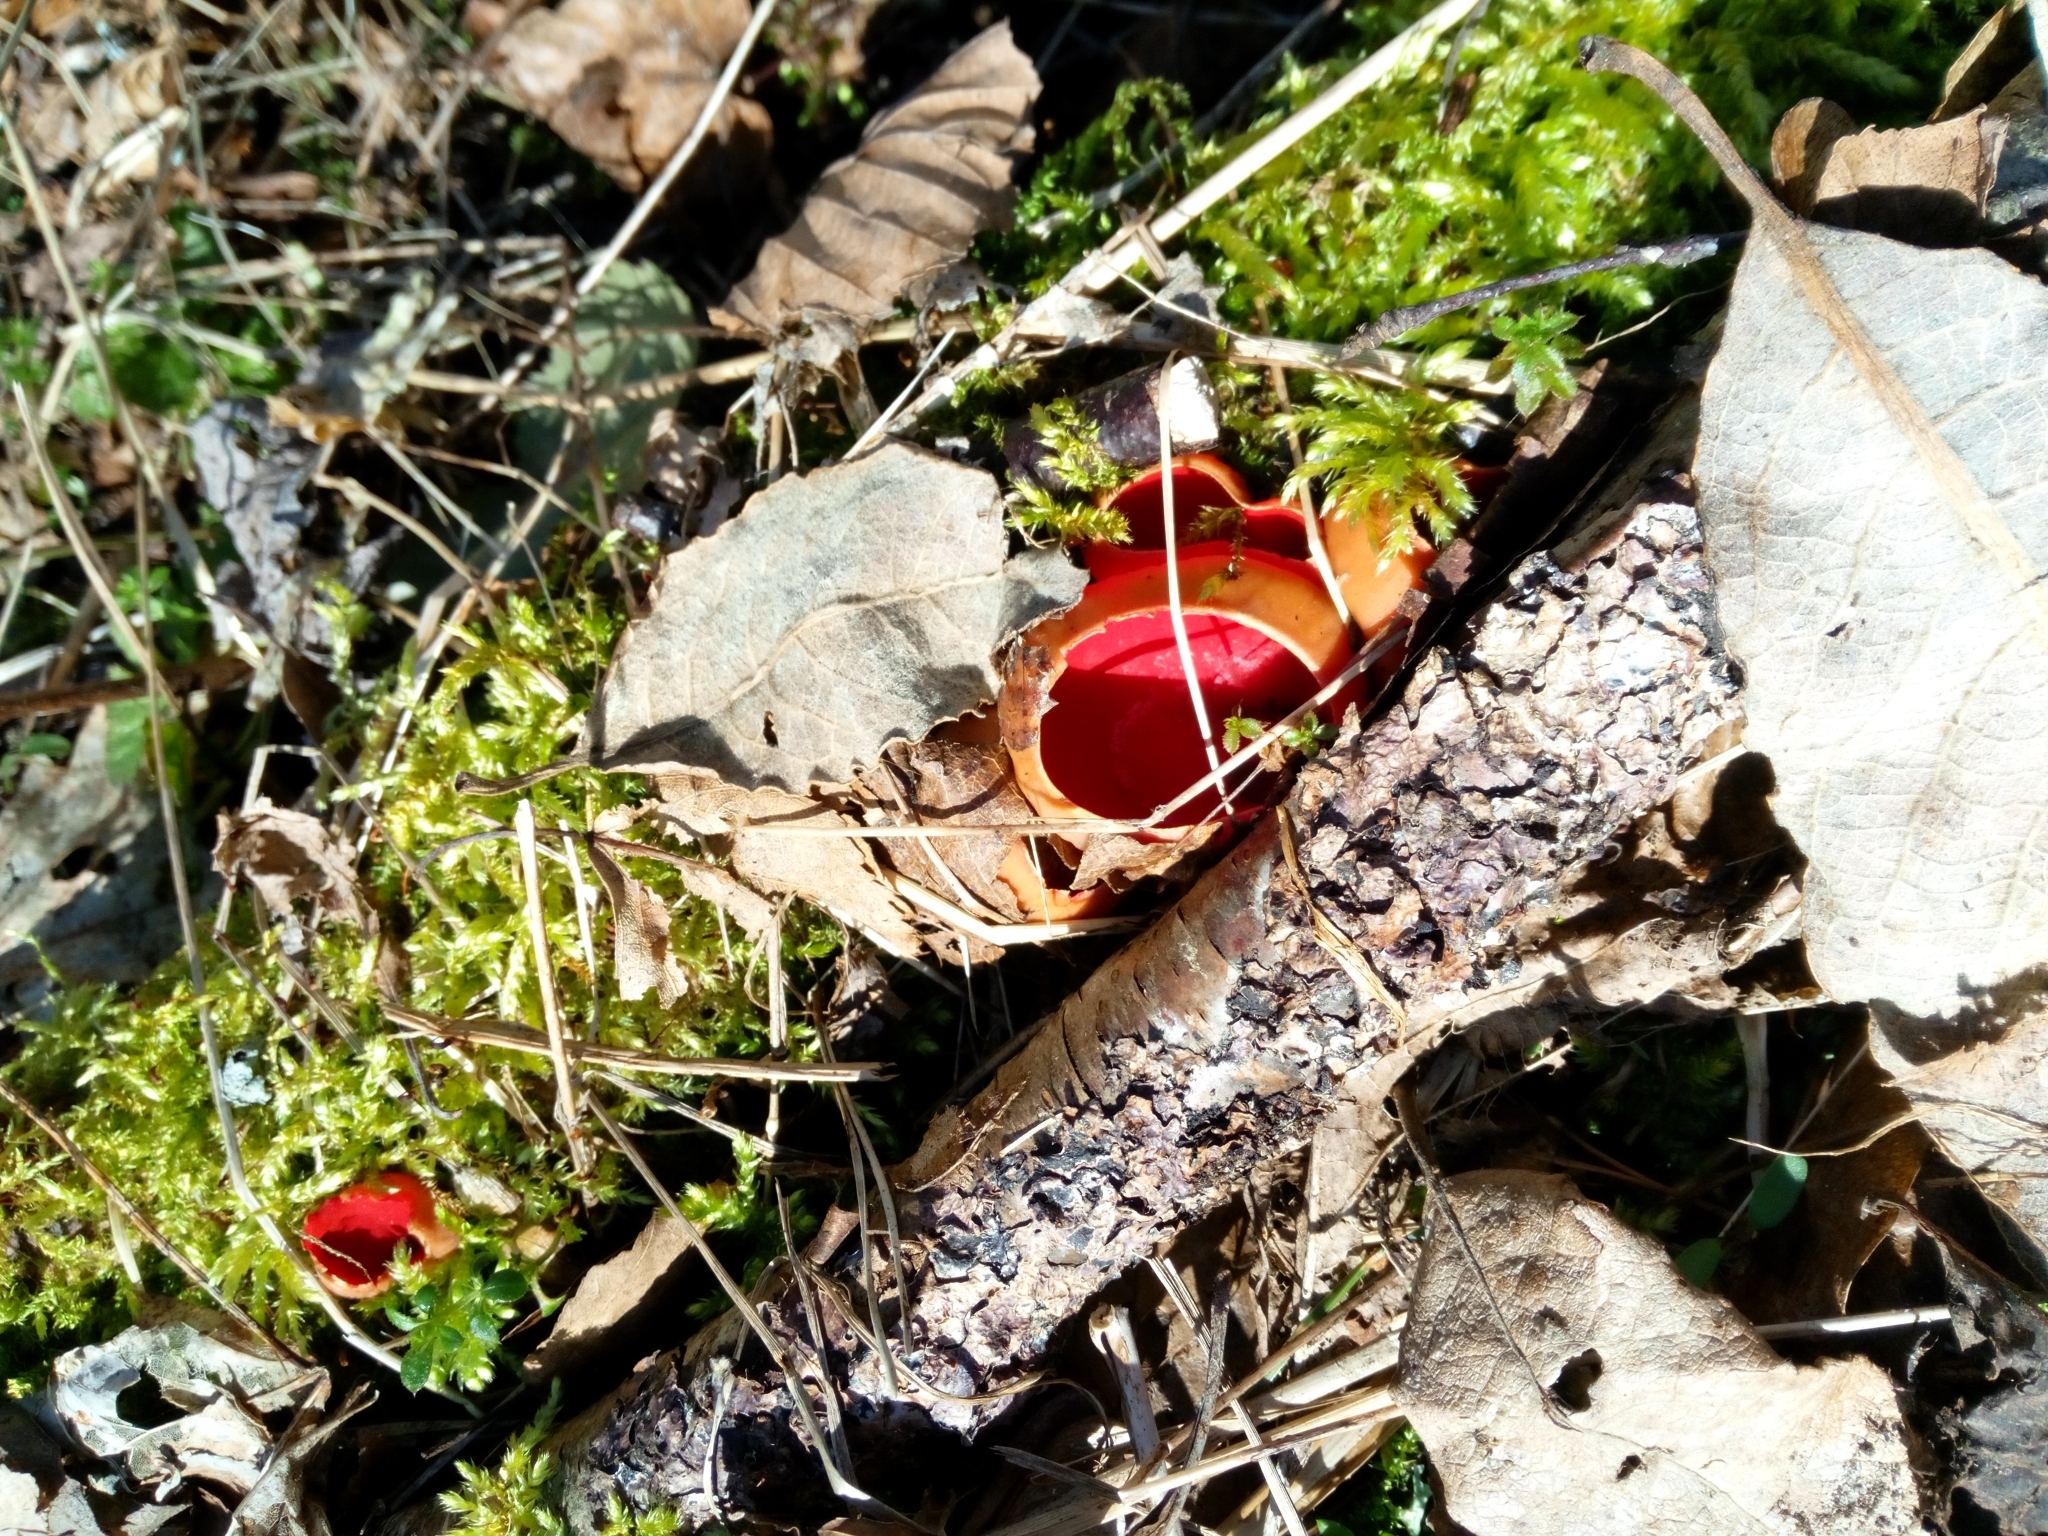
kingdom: Fungi
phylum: Ascomycota
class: Pezizomycetes
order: Pezizales
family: Sarcoscyphaceae
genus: Sarcoscypha
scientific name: Sarcoscypha
